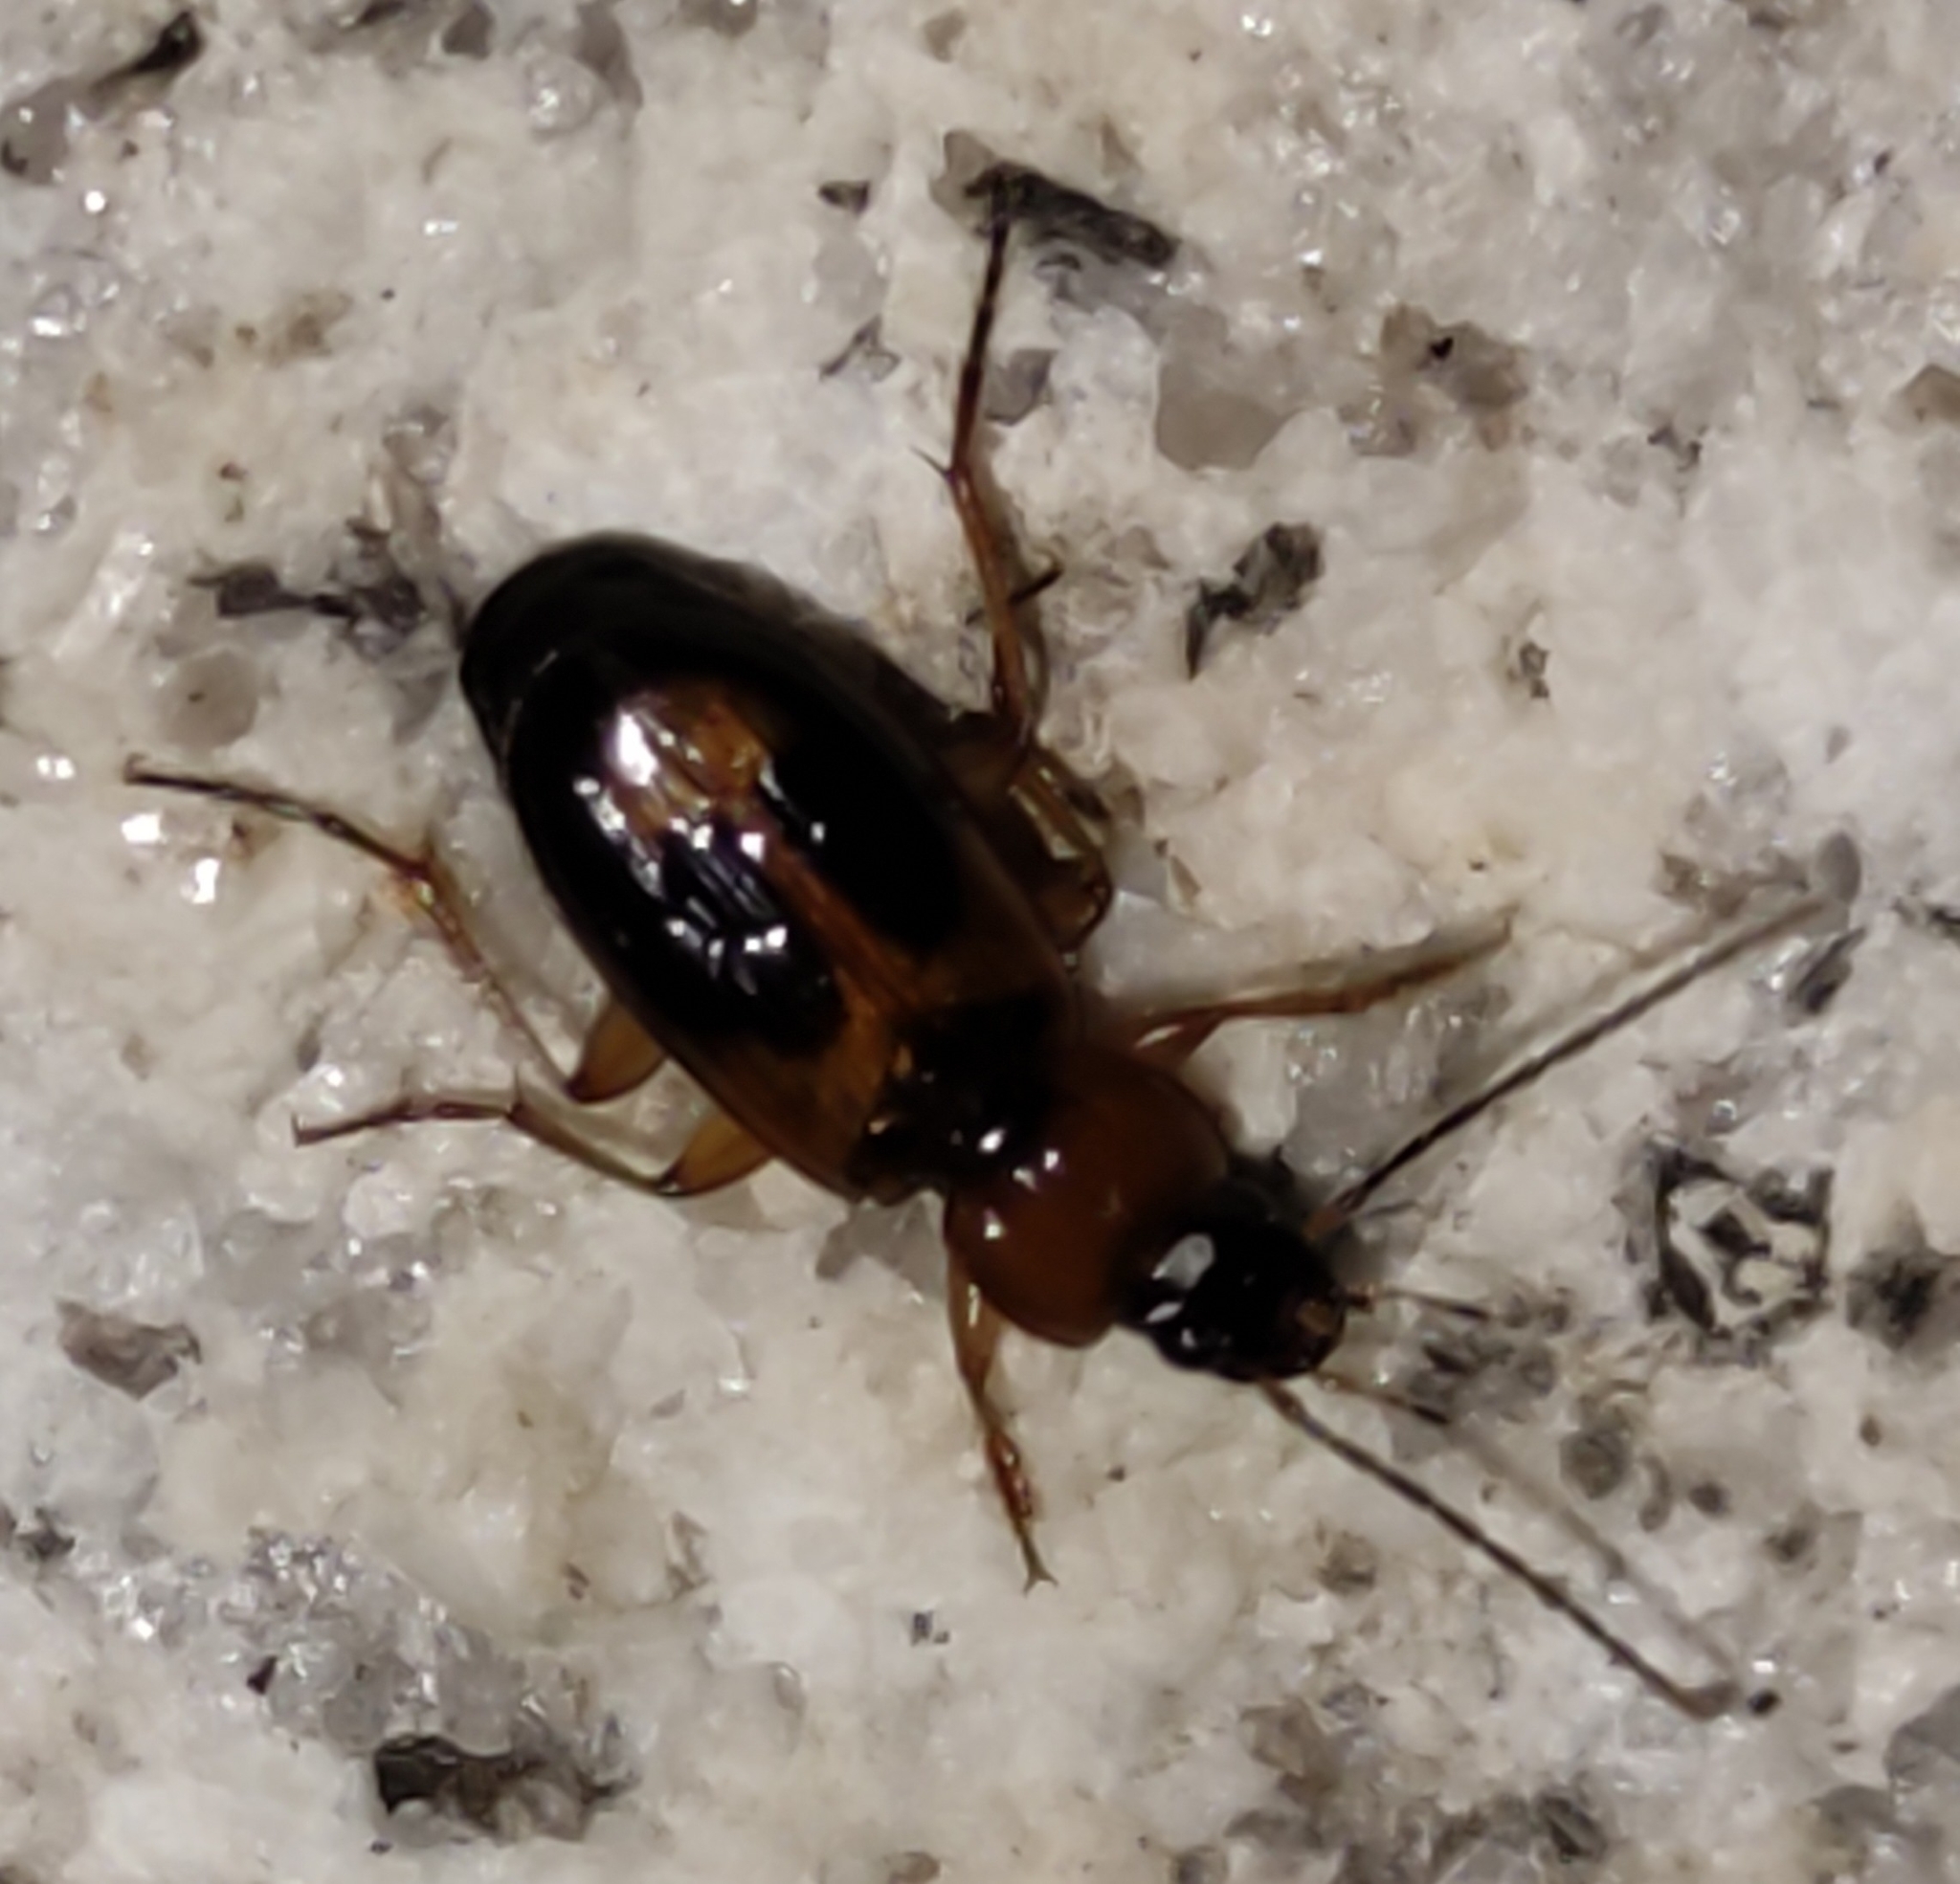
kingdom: Animalia
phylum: Arthropoda
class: Insecta
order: Coleoptera
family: Carabidae
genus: Badister
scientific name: Badister bullatus
